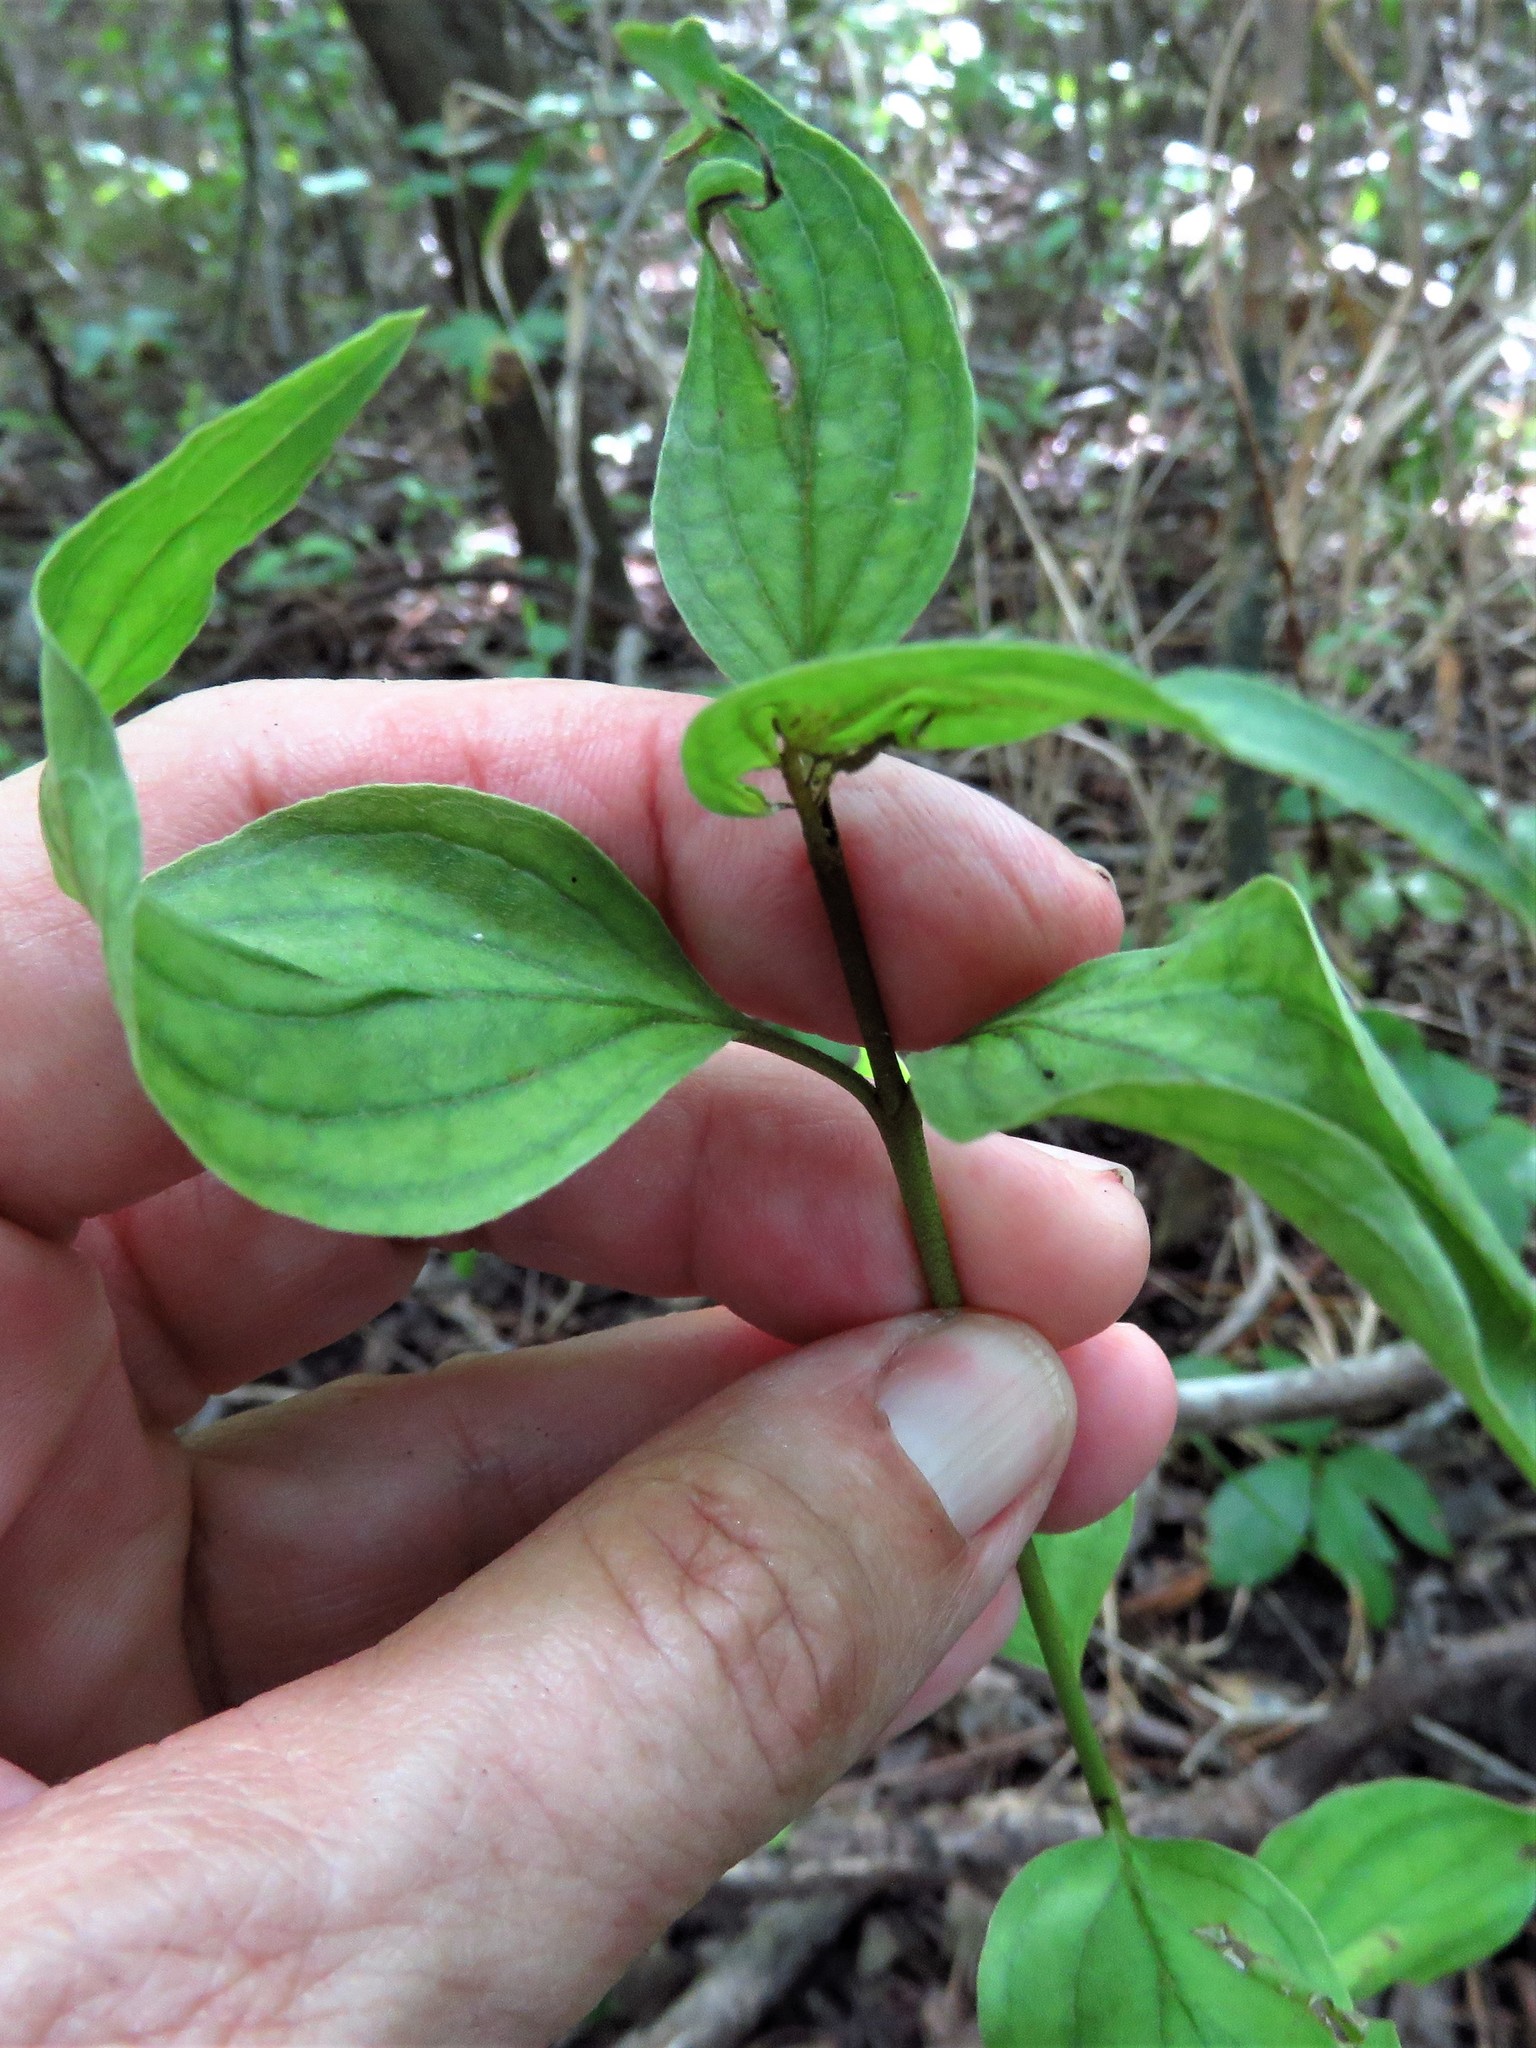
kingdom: Plantae
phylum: Tracheophyta
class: Magnoliopsida
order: Cornales
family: Cornaceae
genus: Cornus
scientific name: Cornus drummondii
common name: Rough-leaf dogwood
